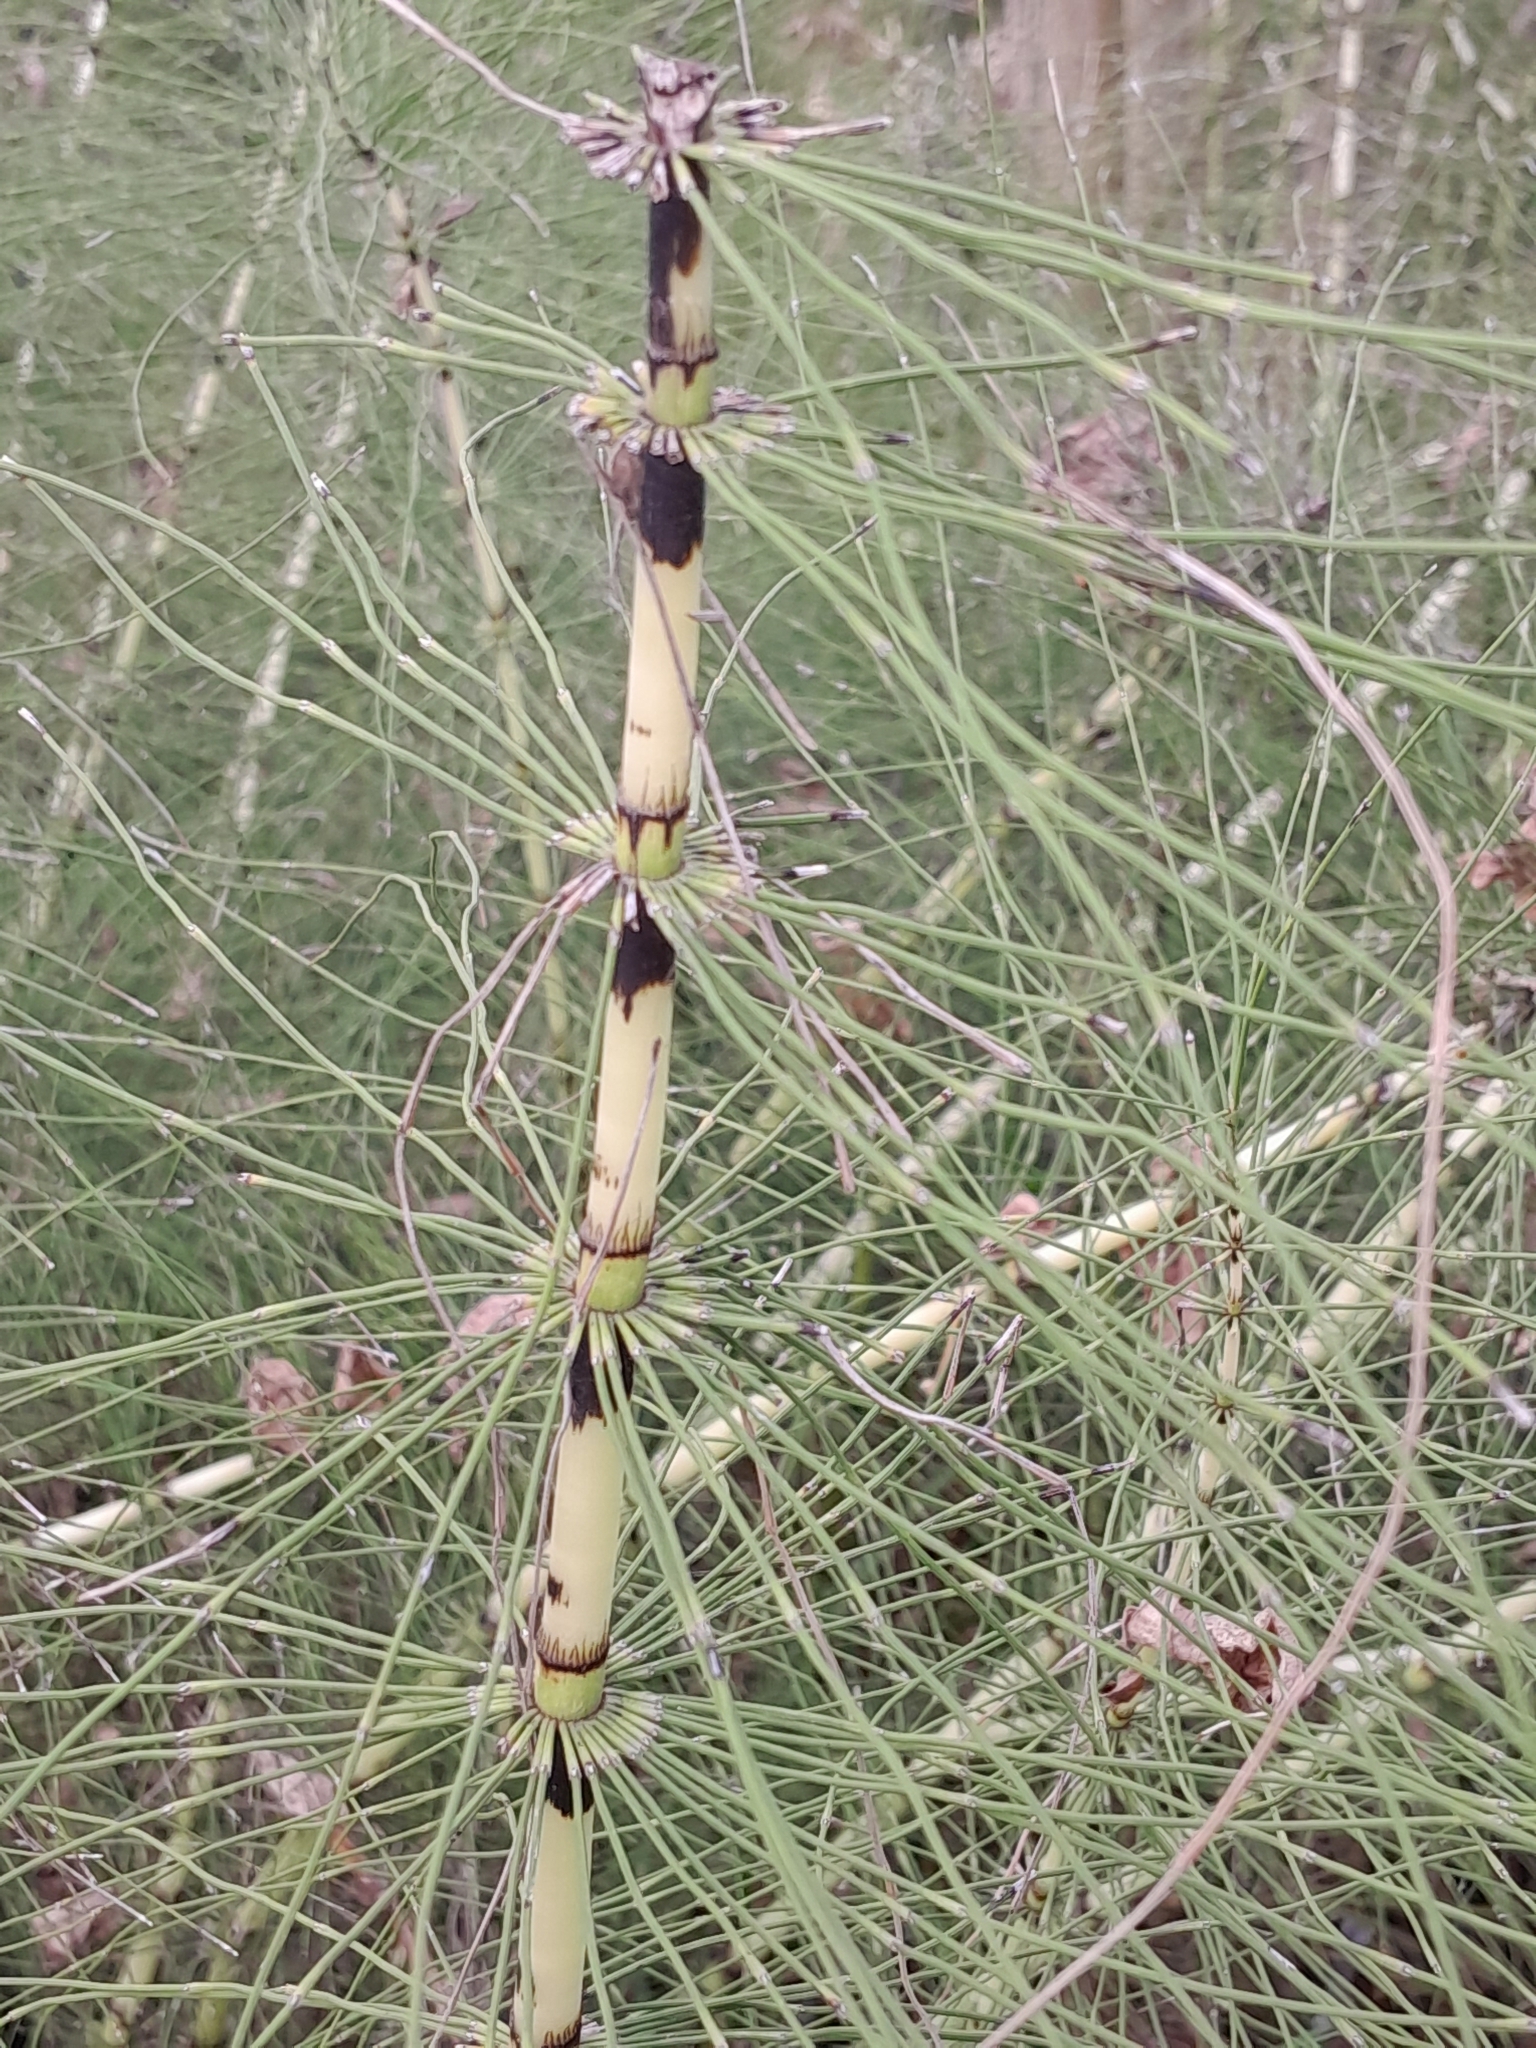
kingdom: Plantae
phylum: Tracheophyta
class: Polypodiopsida
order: Equisetales
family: Equisetaceae
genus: Equisetum
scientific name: Equisetum telmateia
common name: Great horsetail
